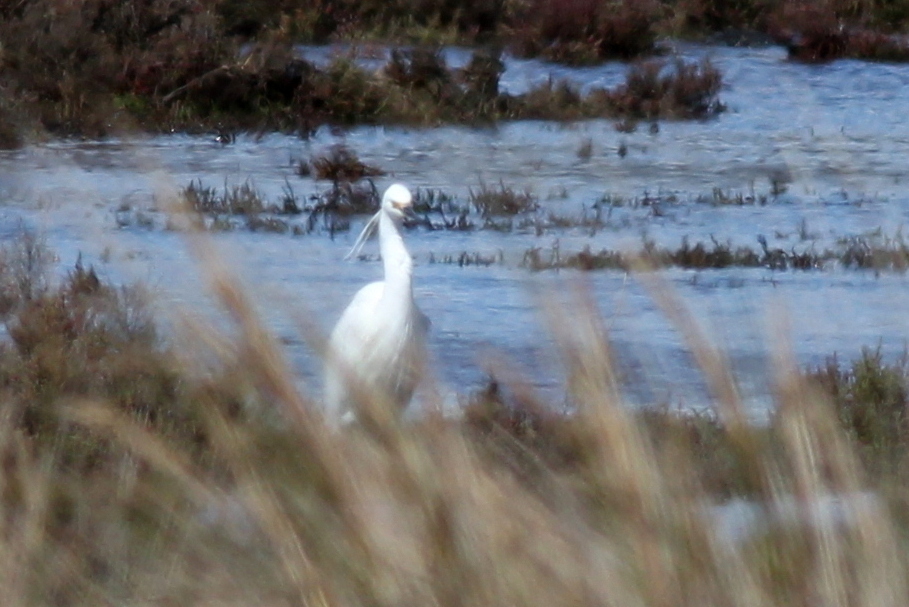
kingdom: Animalia
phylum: Chordata
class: Aves
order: Pelecaniformes
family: Ardeidae
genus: Egretta
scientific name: Egretta garzetta
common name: Little egret
